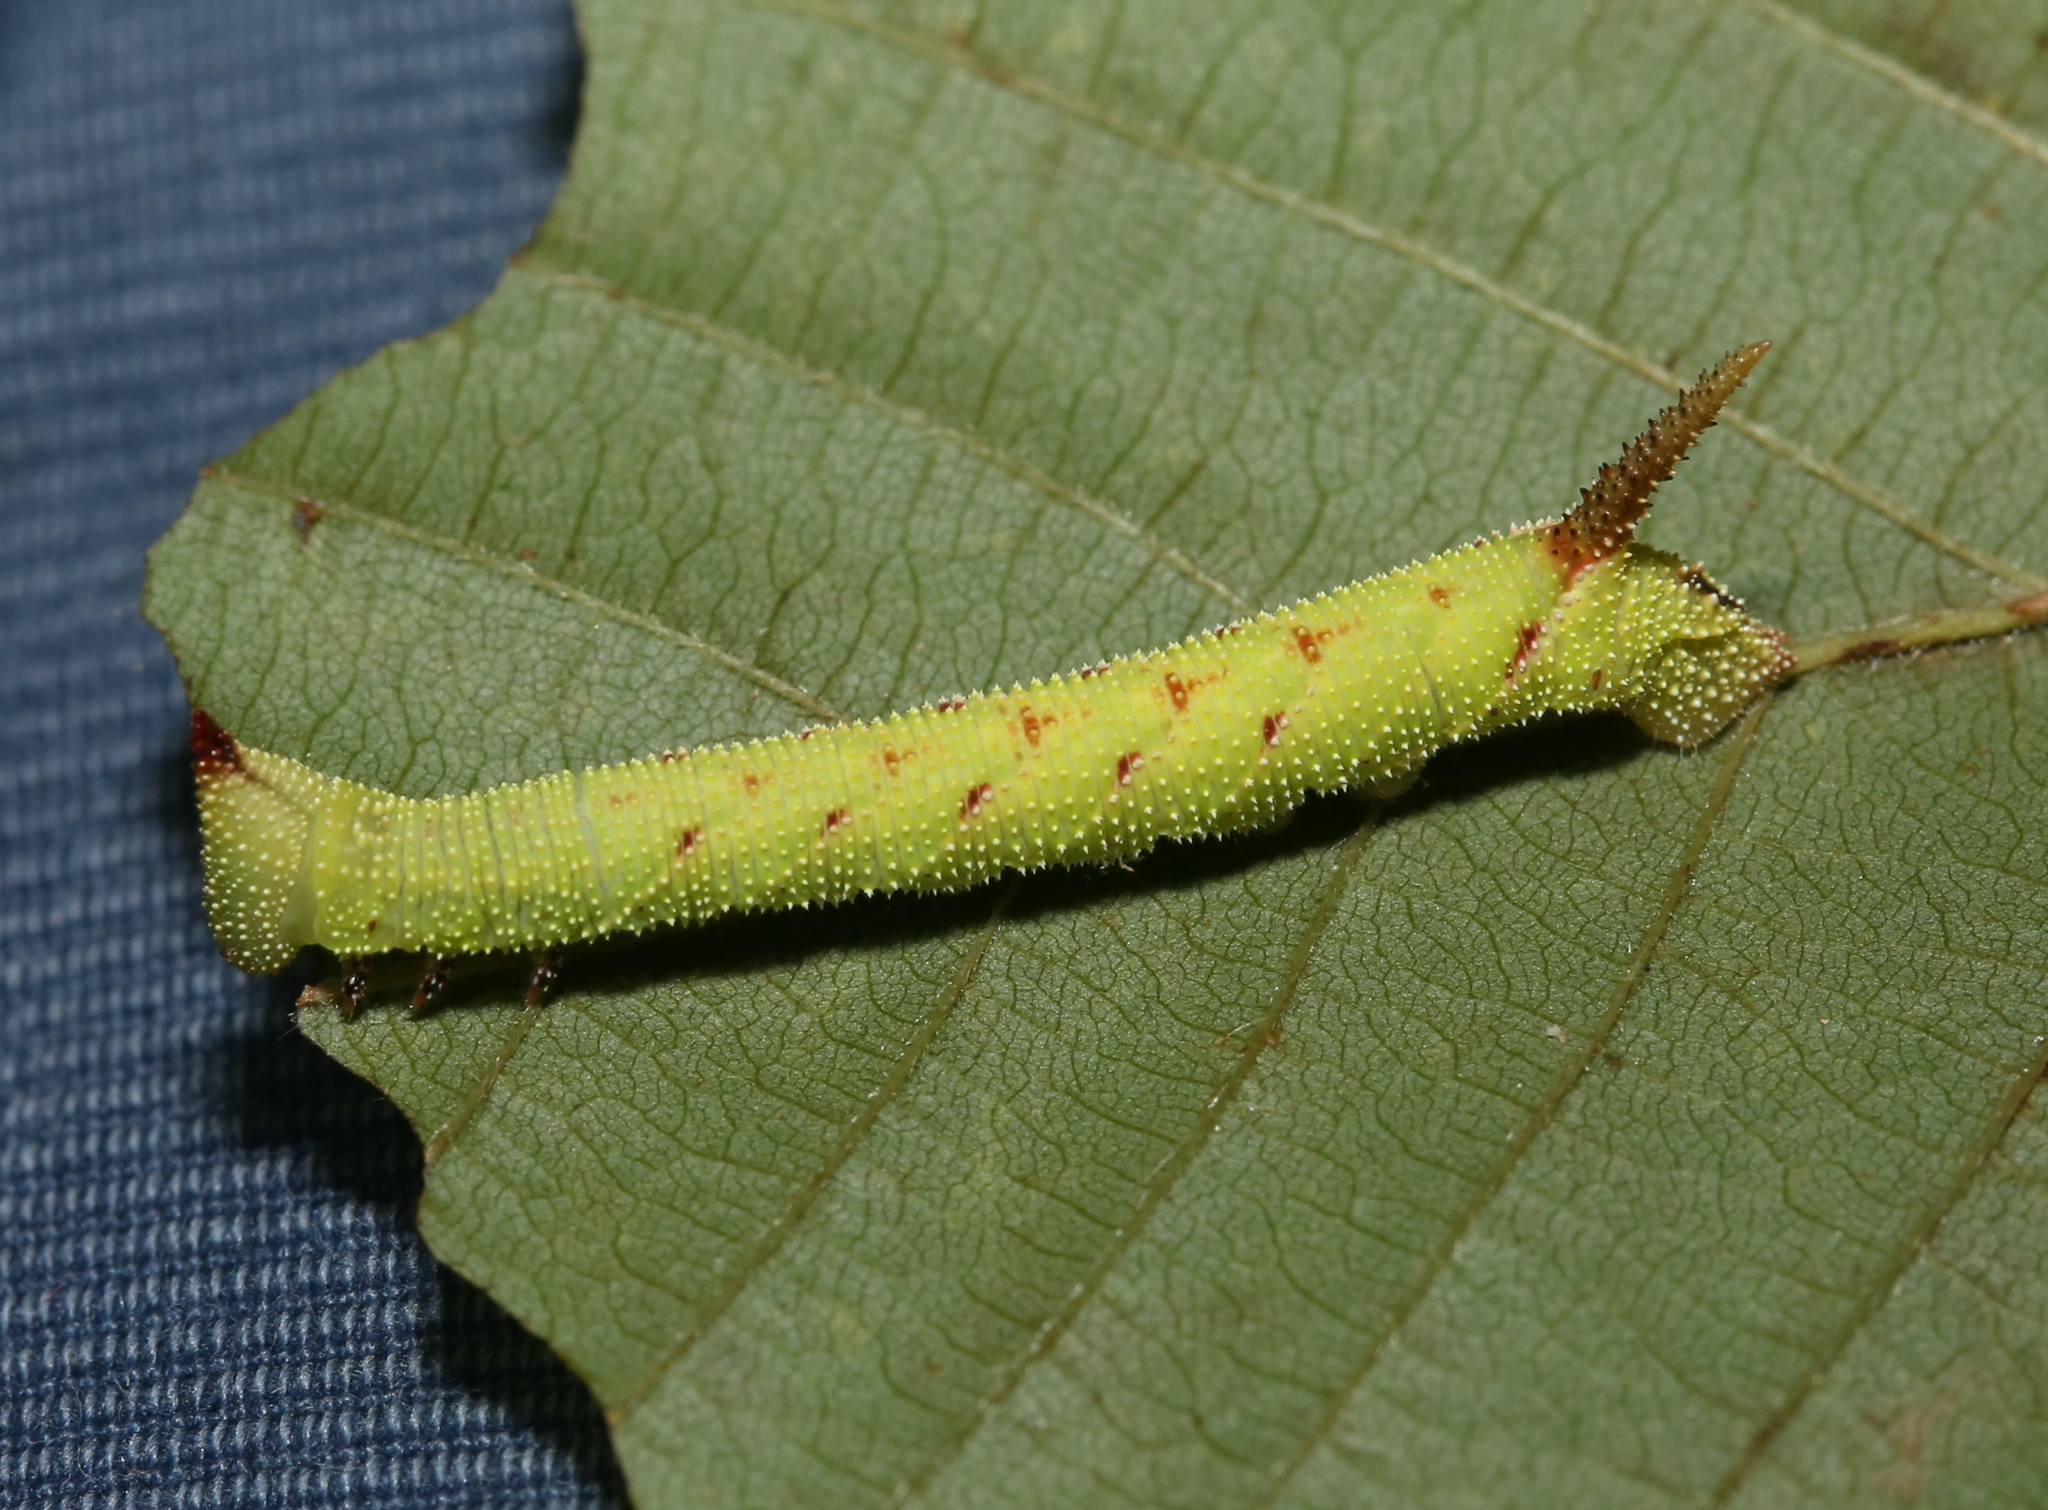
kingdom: Animalia
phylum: Arthropoda
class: Insecta
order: Lepidoptera
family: Sphingidae
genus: Amorpha
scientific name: Amorpha juglandis
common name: Walnut sphinx
